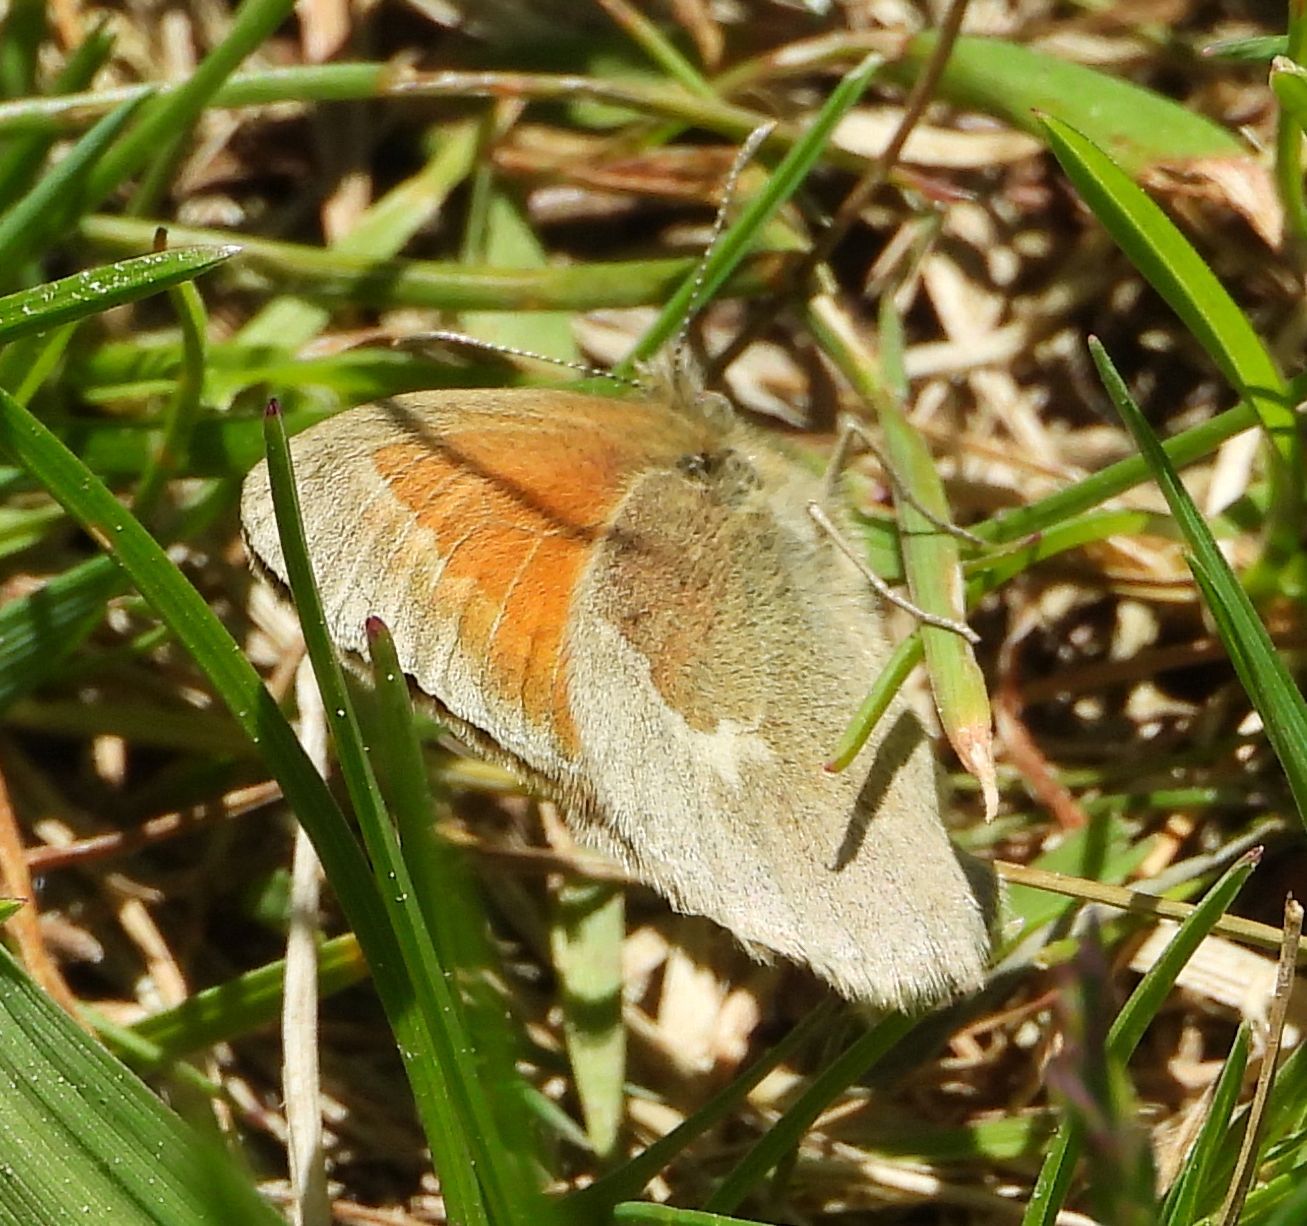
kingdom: Animalia
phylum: Arthropoda
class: Insecta
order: Lepidoptera
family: Nymphalidae
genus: Coenonympha
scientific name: Coenonympha california
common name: Common ringlet
